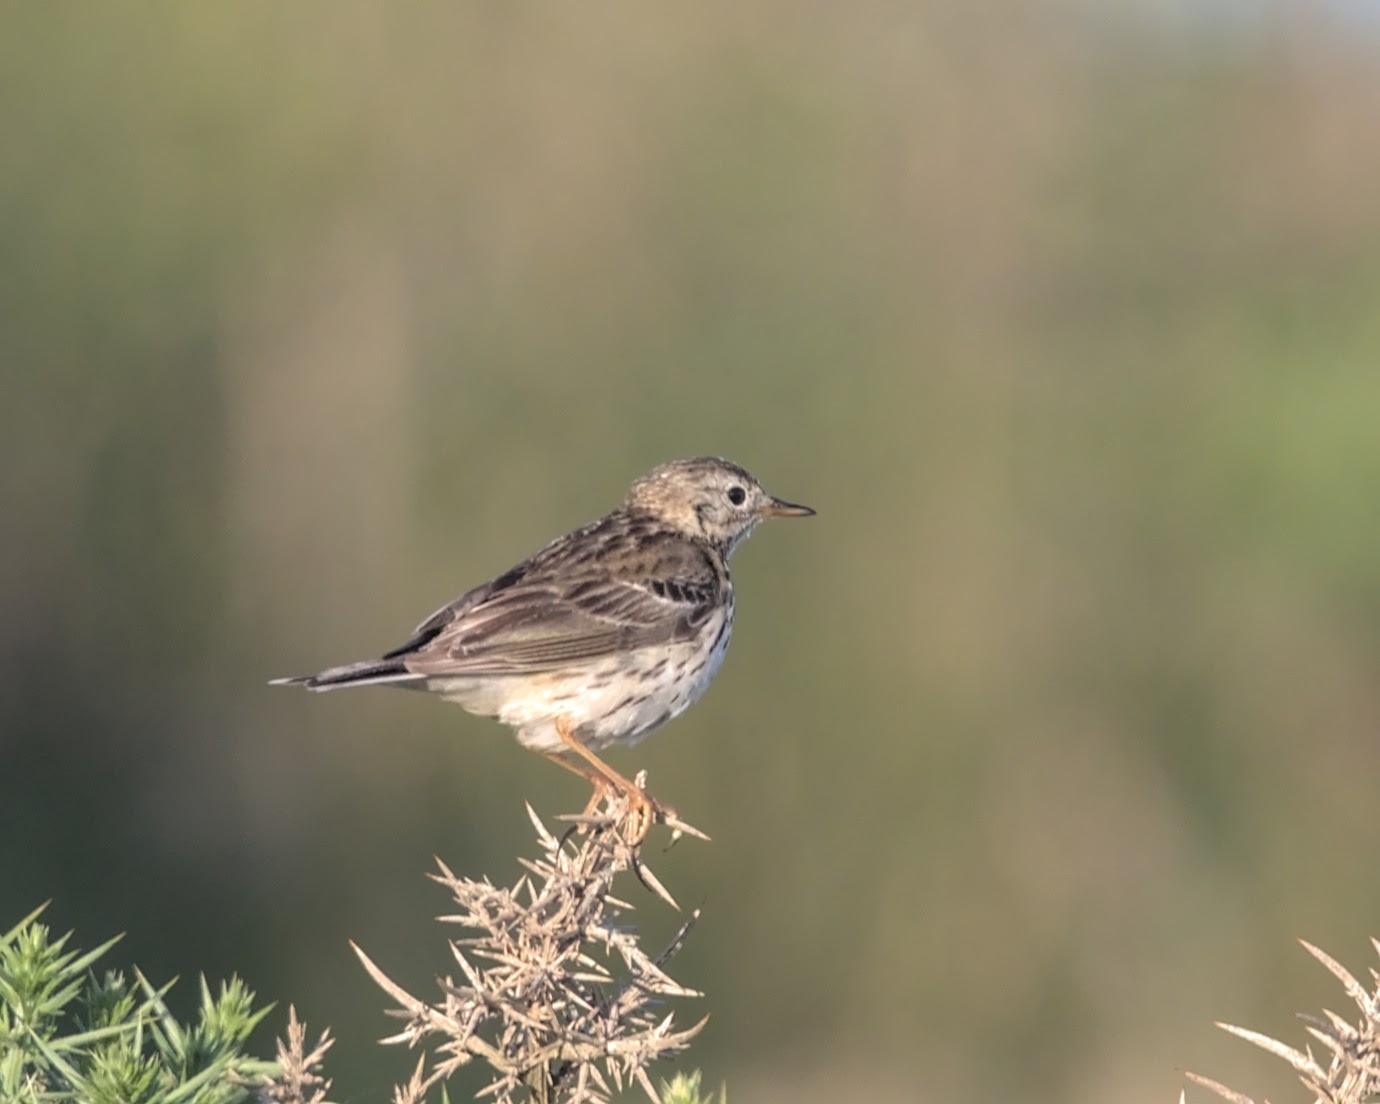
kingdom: Animalia
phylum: Chordata
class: Aves
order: Passeriformes
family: Motacillidae
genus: Anthus
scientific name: Anthus pratensis
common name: Meadow pipit
